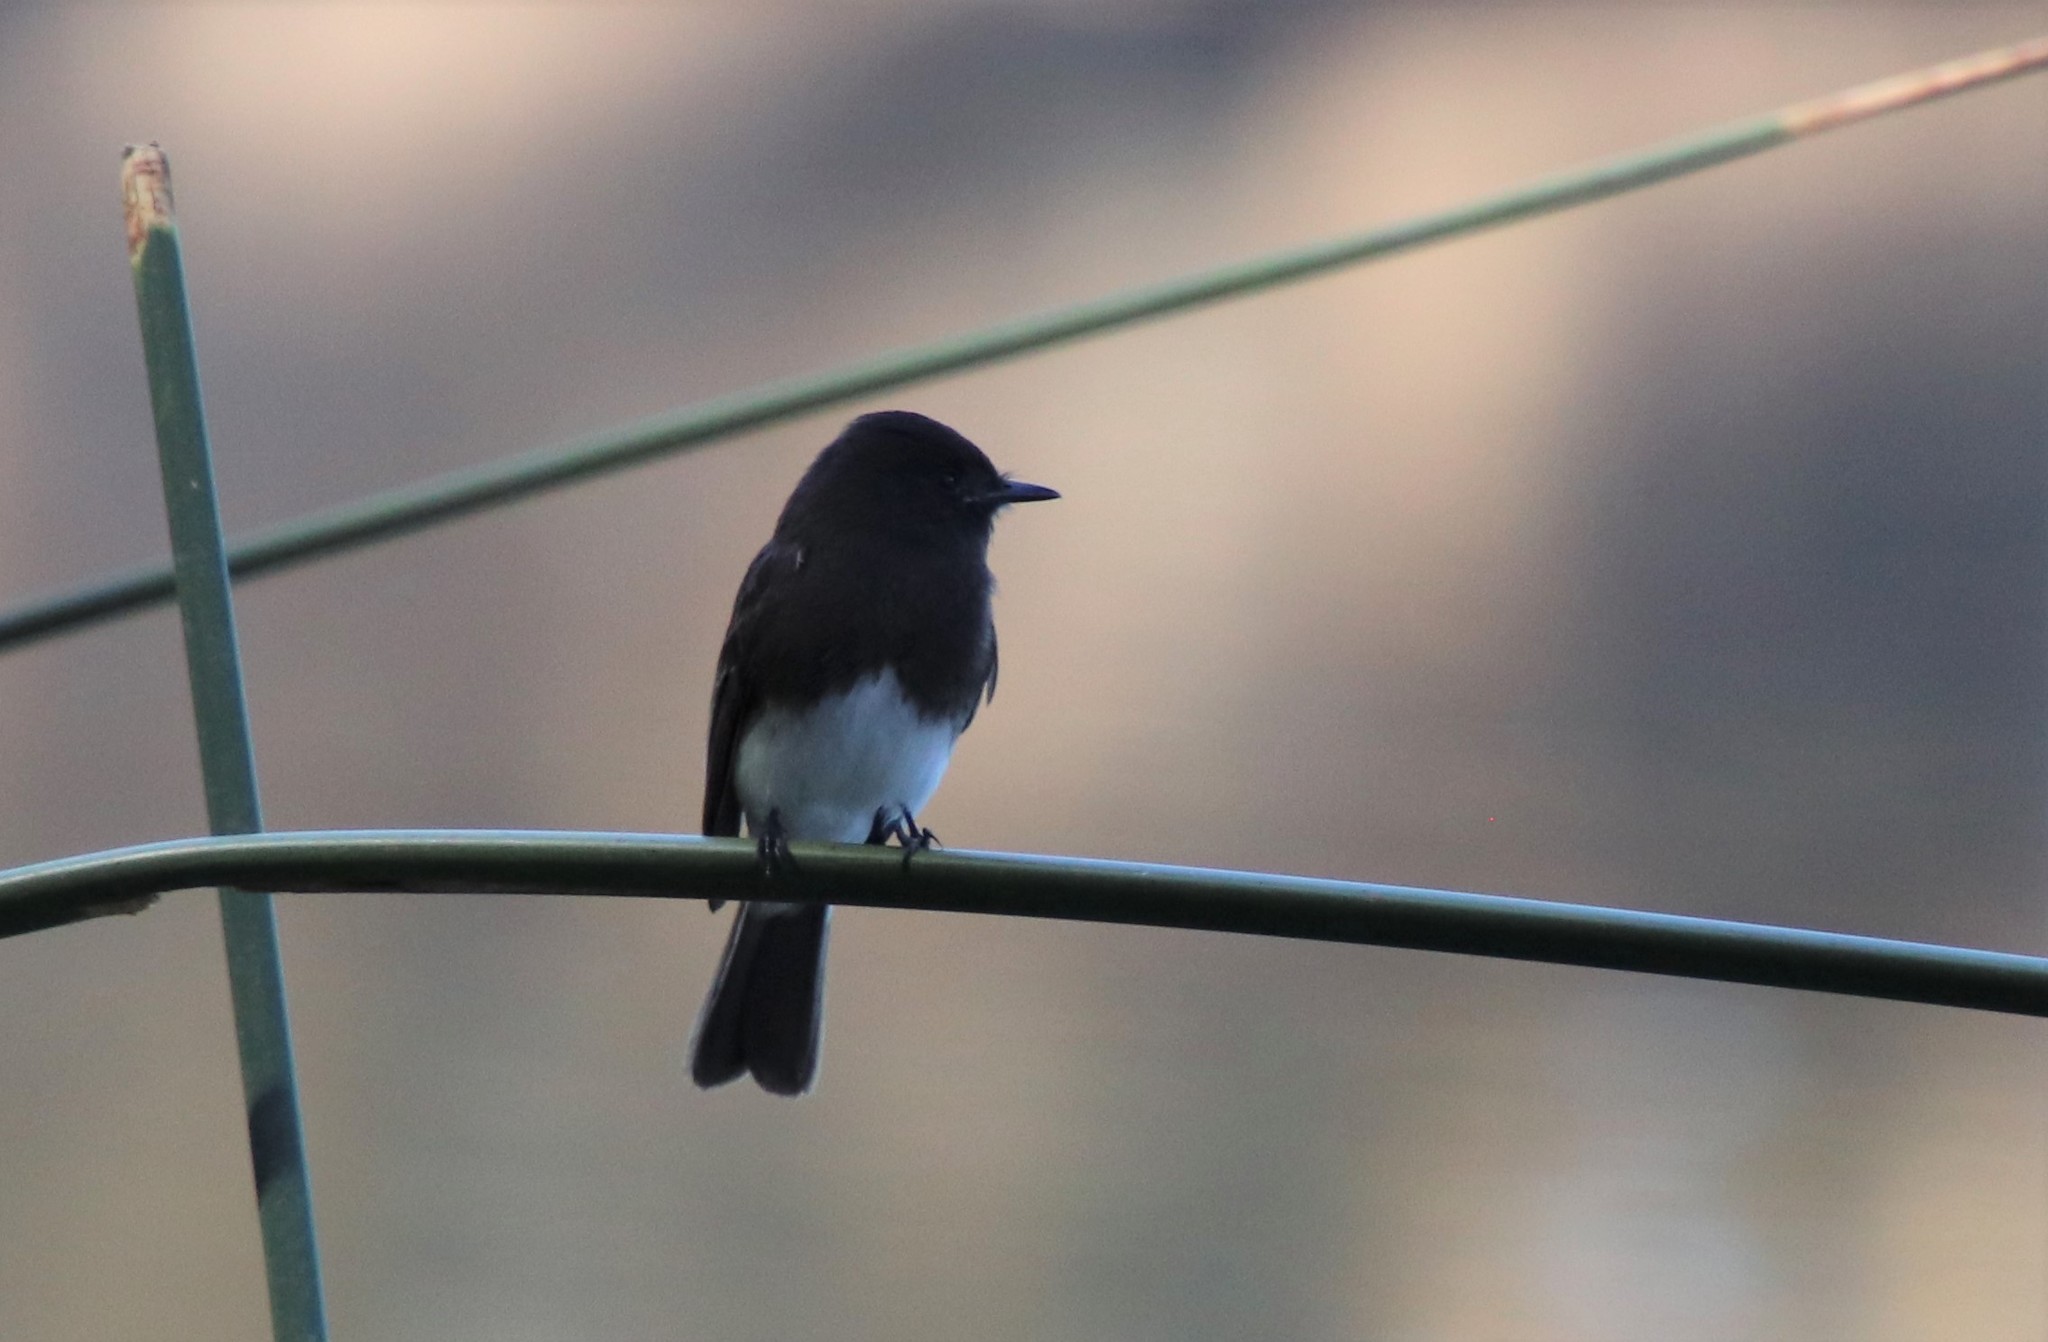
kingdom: Animalia
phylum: Chordata
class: Aves
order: Passeriformes
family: Tyrannidae
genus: Sayornis
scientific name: Sayornis nigricans
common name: Black phoebe
